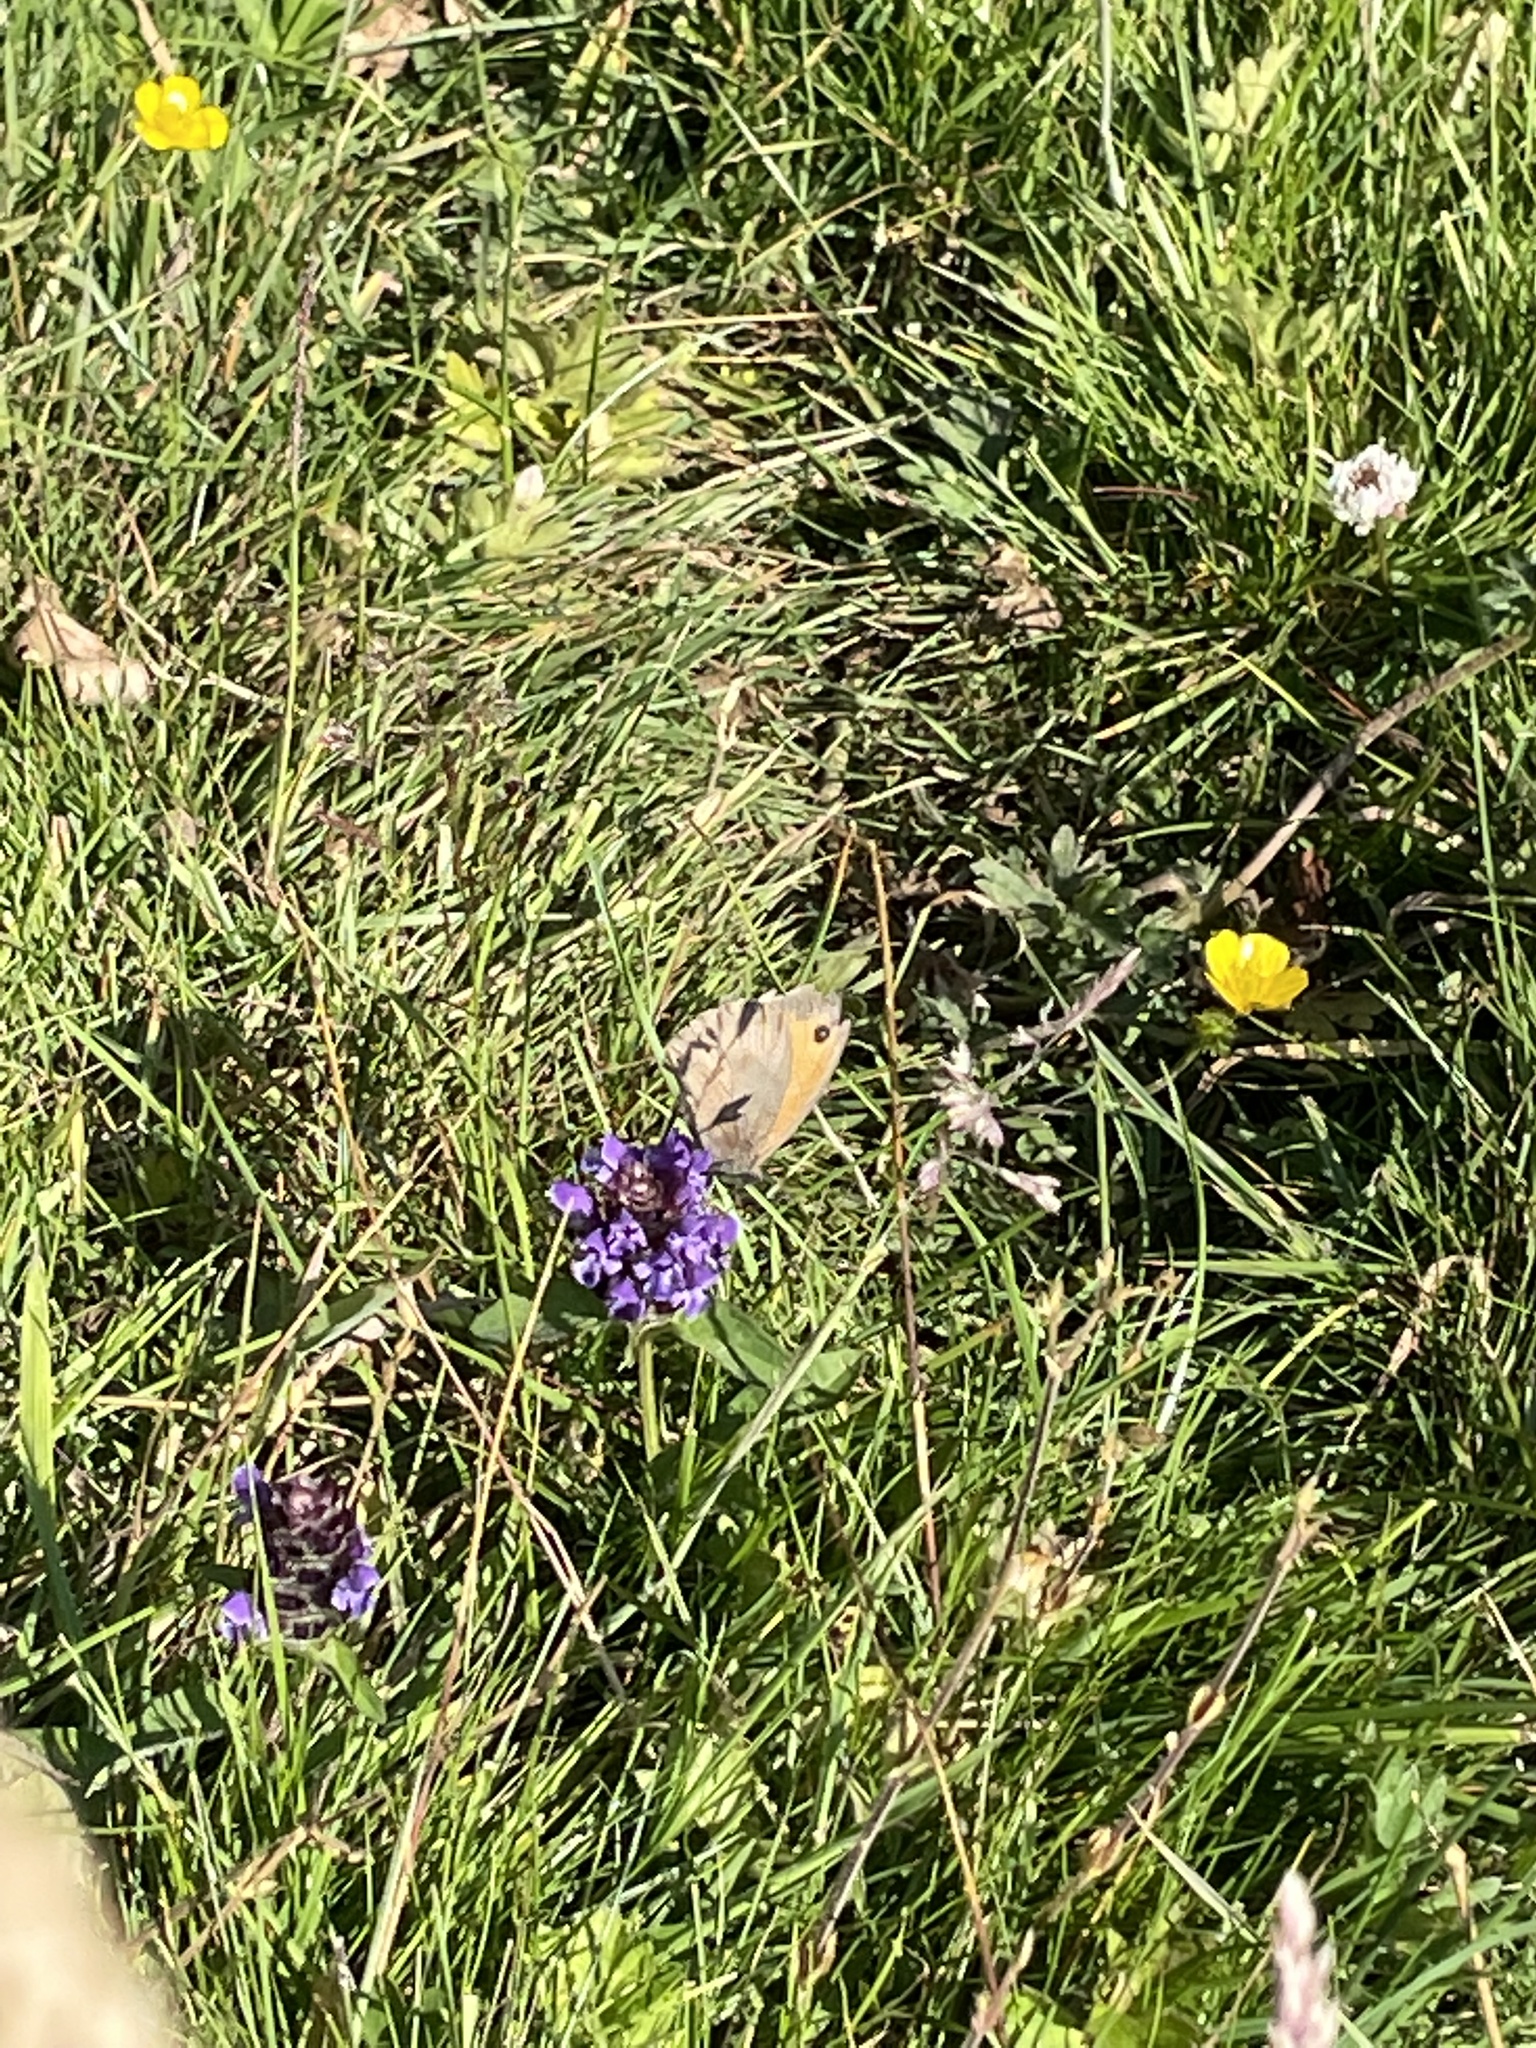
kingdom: Animalia
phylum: Arthropoda
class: Insecta
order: Lepidoptera
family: Nymphalidae
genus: Maniola
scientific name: Maniola jurtina
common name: Meadow brown
